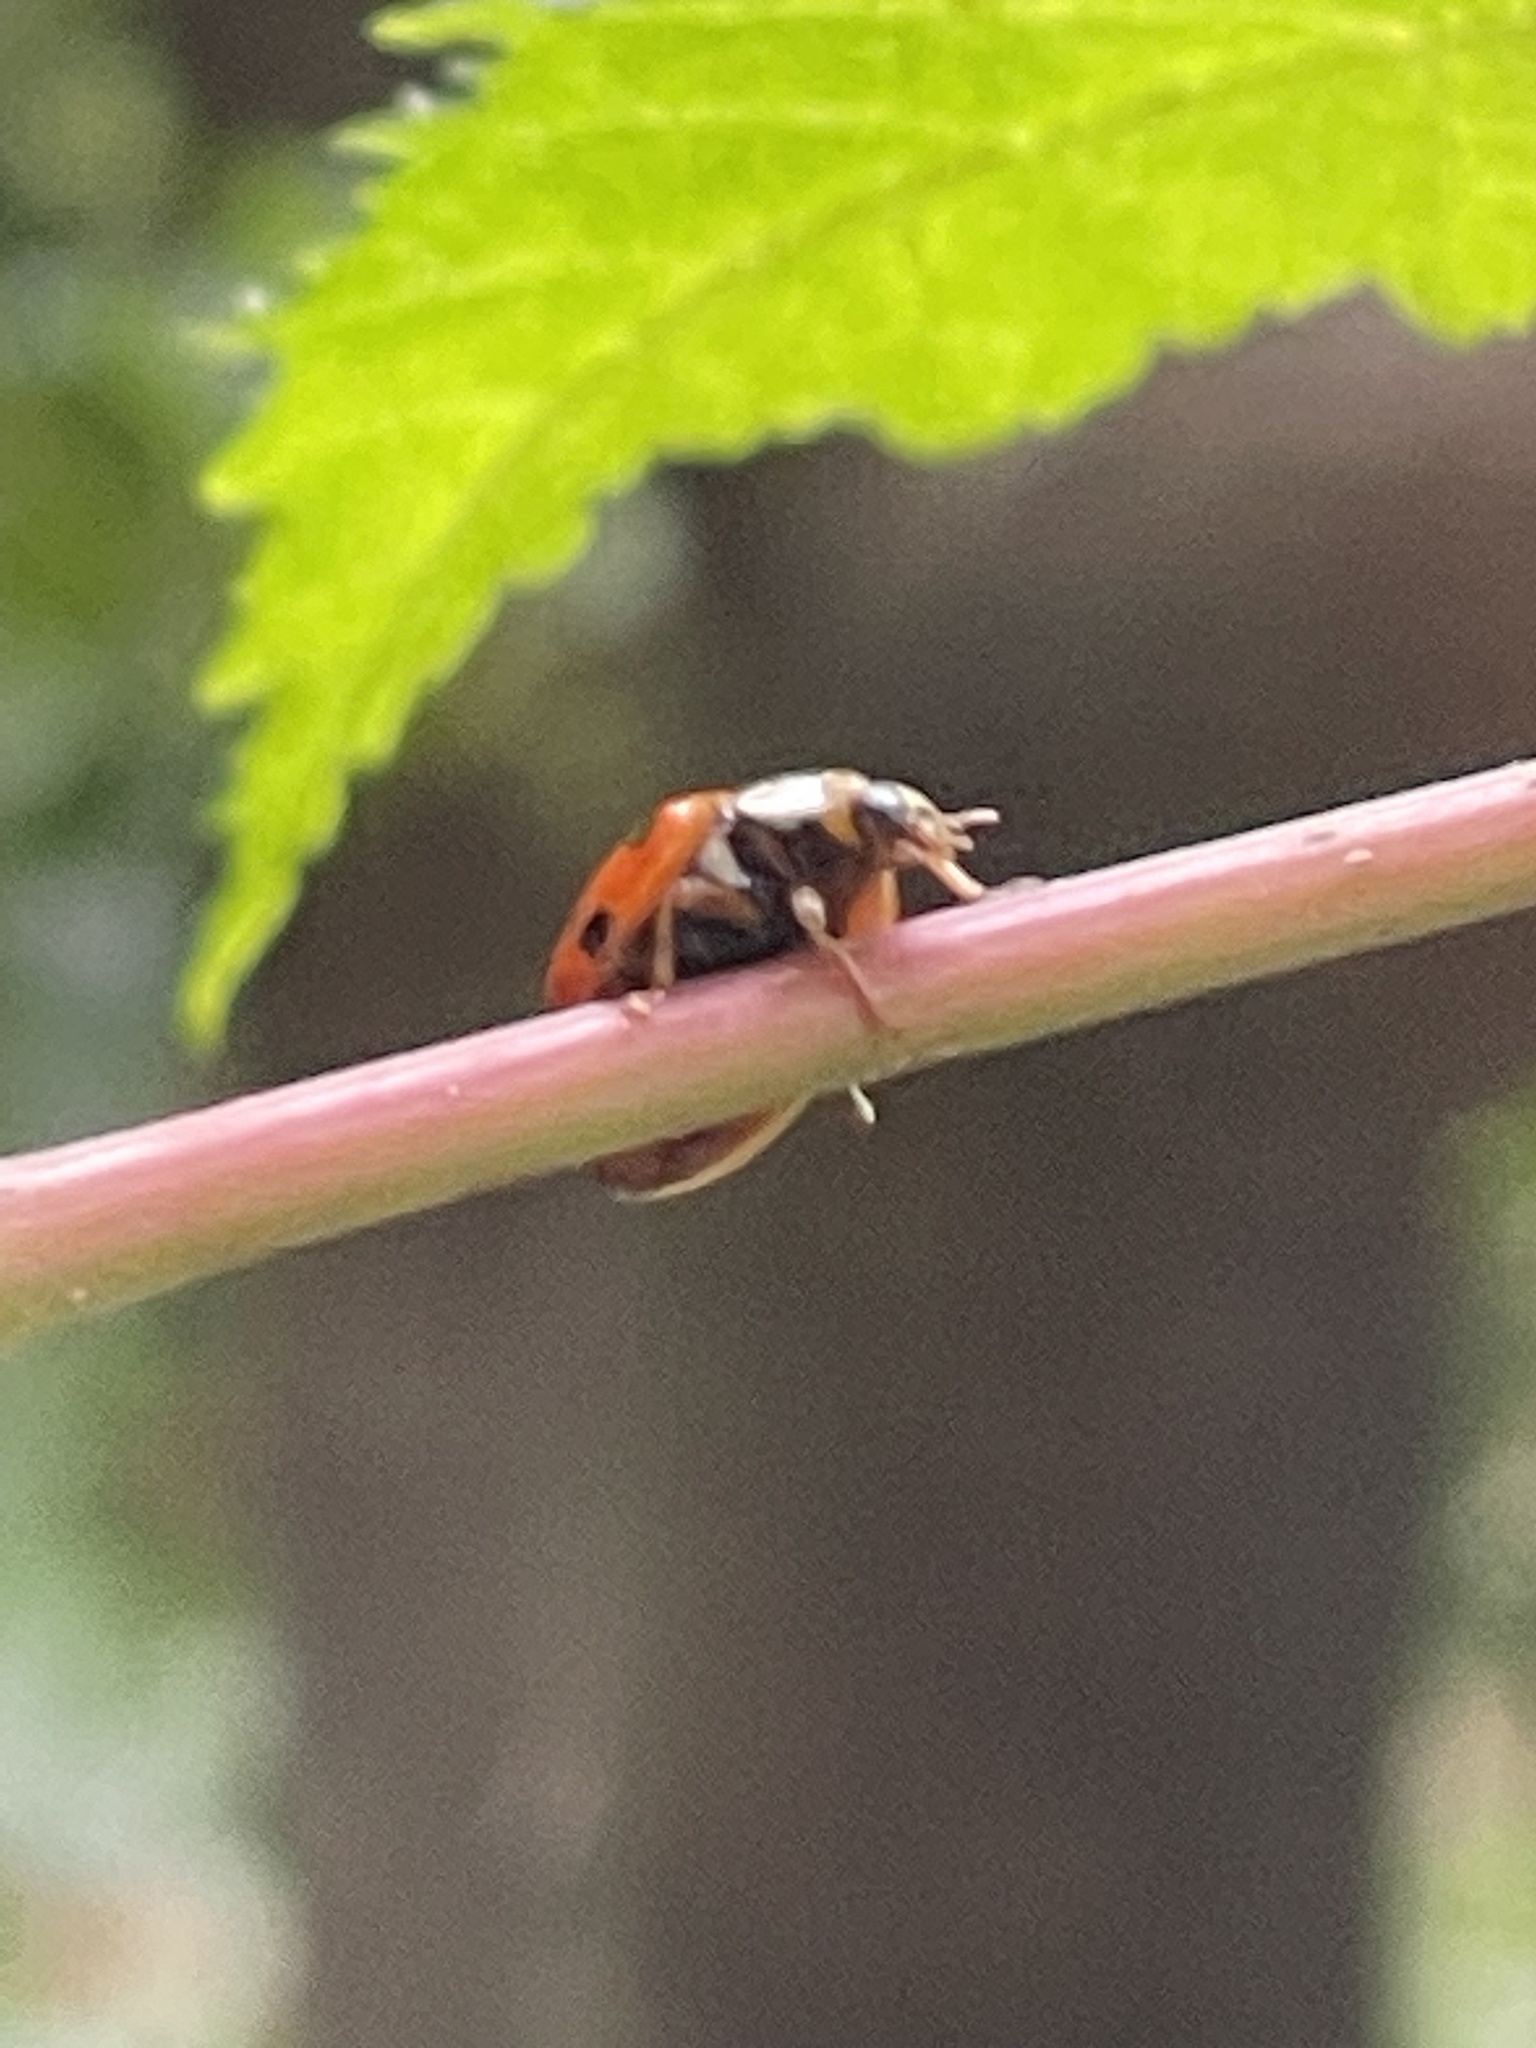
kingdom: Animalia
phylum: Arthropoda
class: Insecta
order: Coleoptera
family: Coccinellidae
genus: Harmonia
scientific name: Harmonia axyridis
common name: Harlequin ladybird
